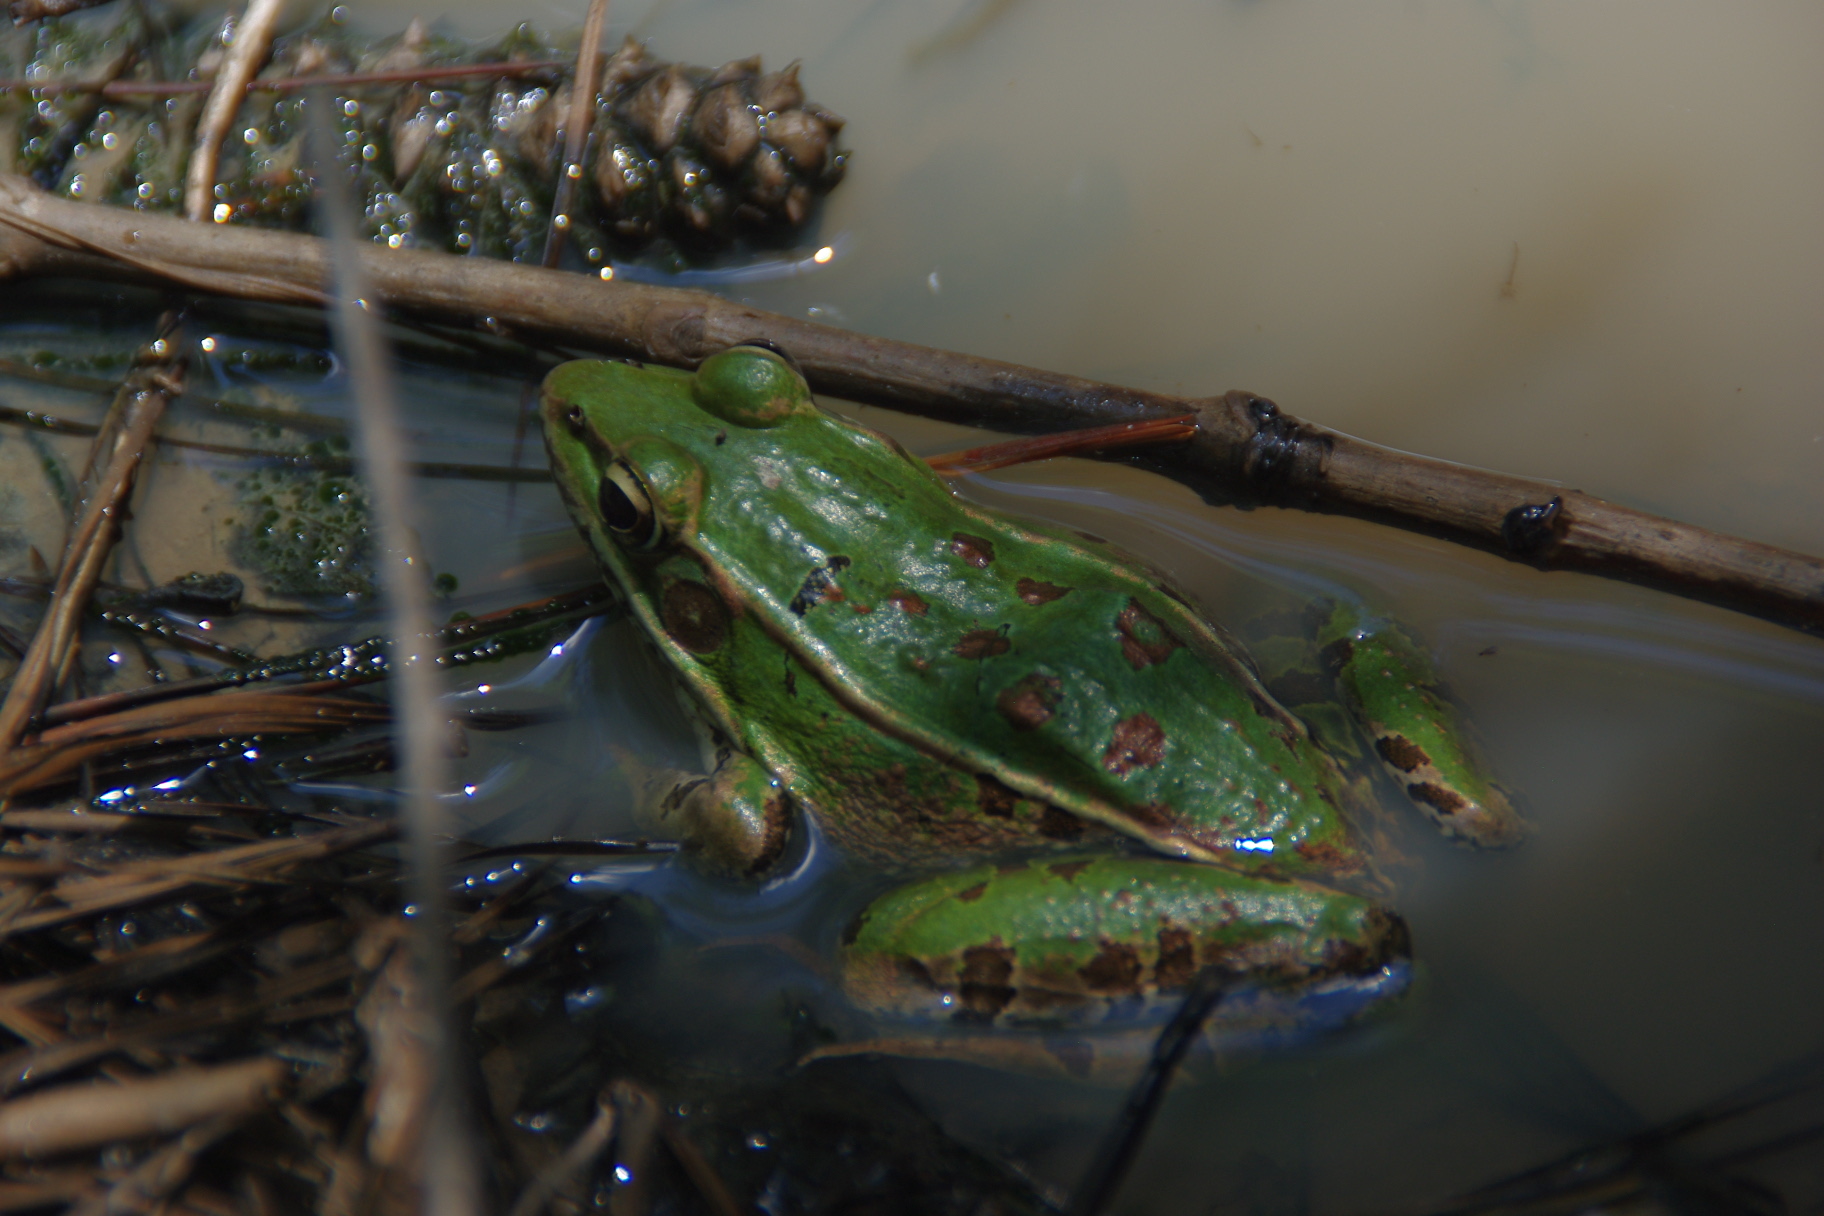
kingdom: Animalia
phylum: Chordata
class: Amphibia
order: Anura
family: Ranidae
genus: Lithobates
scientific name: Lithobates sphenocephalus
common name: Southern leopard frog
